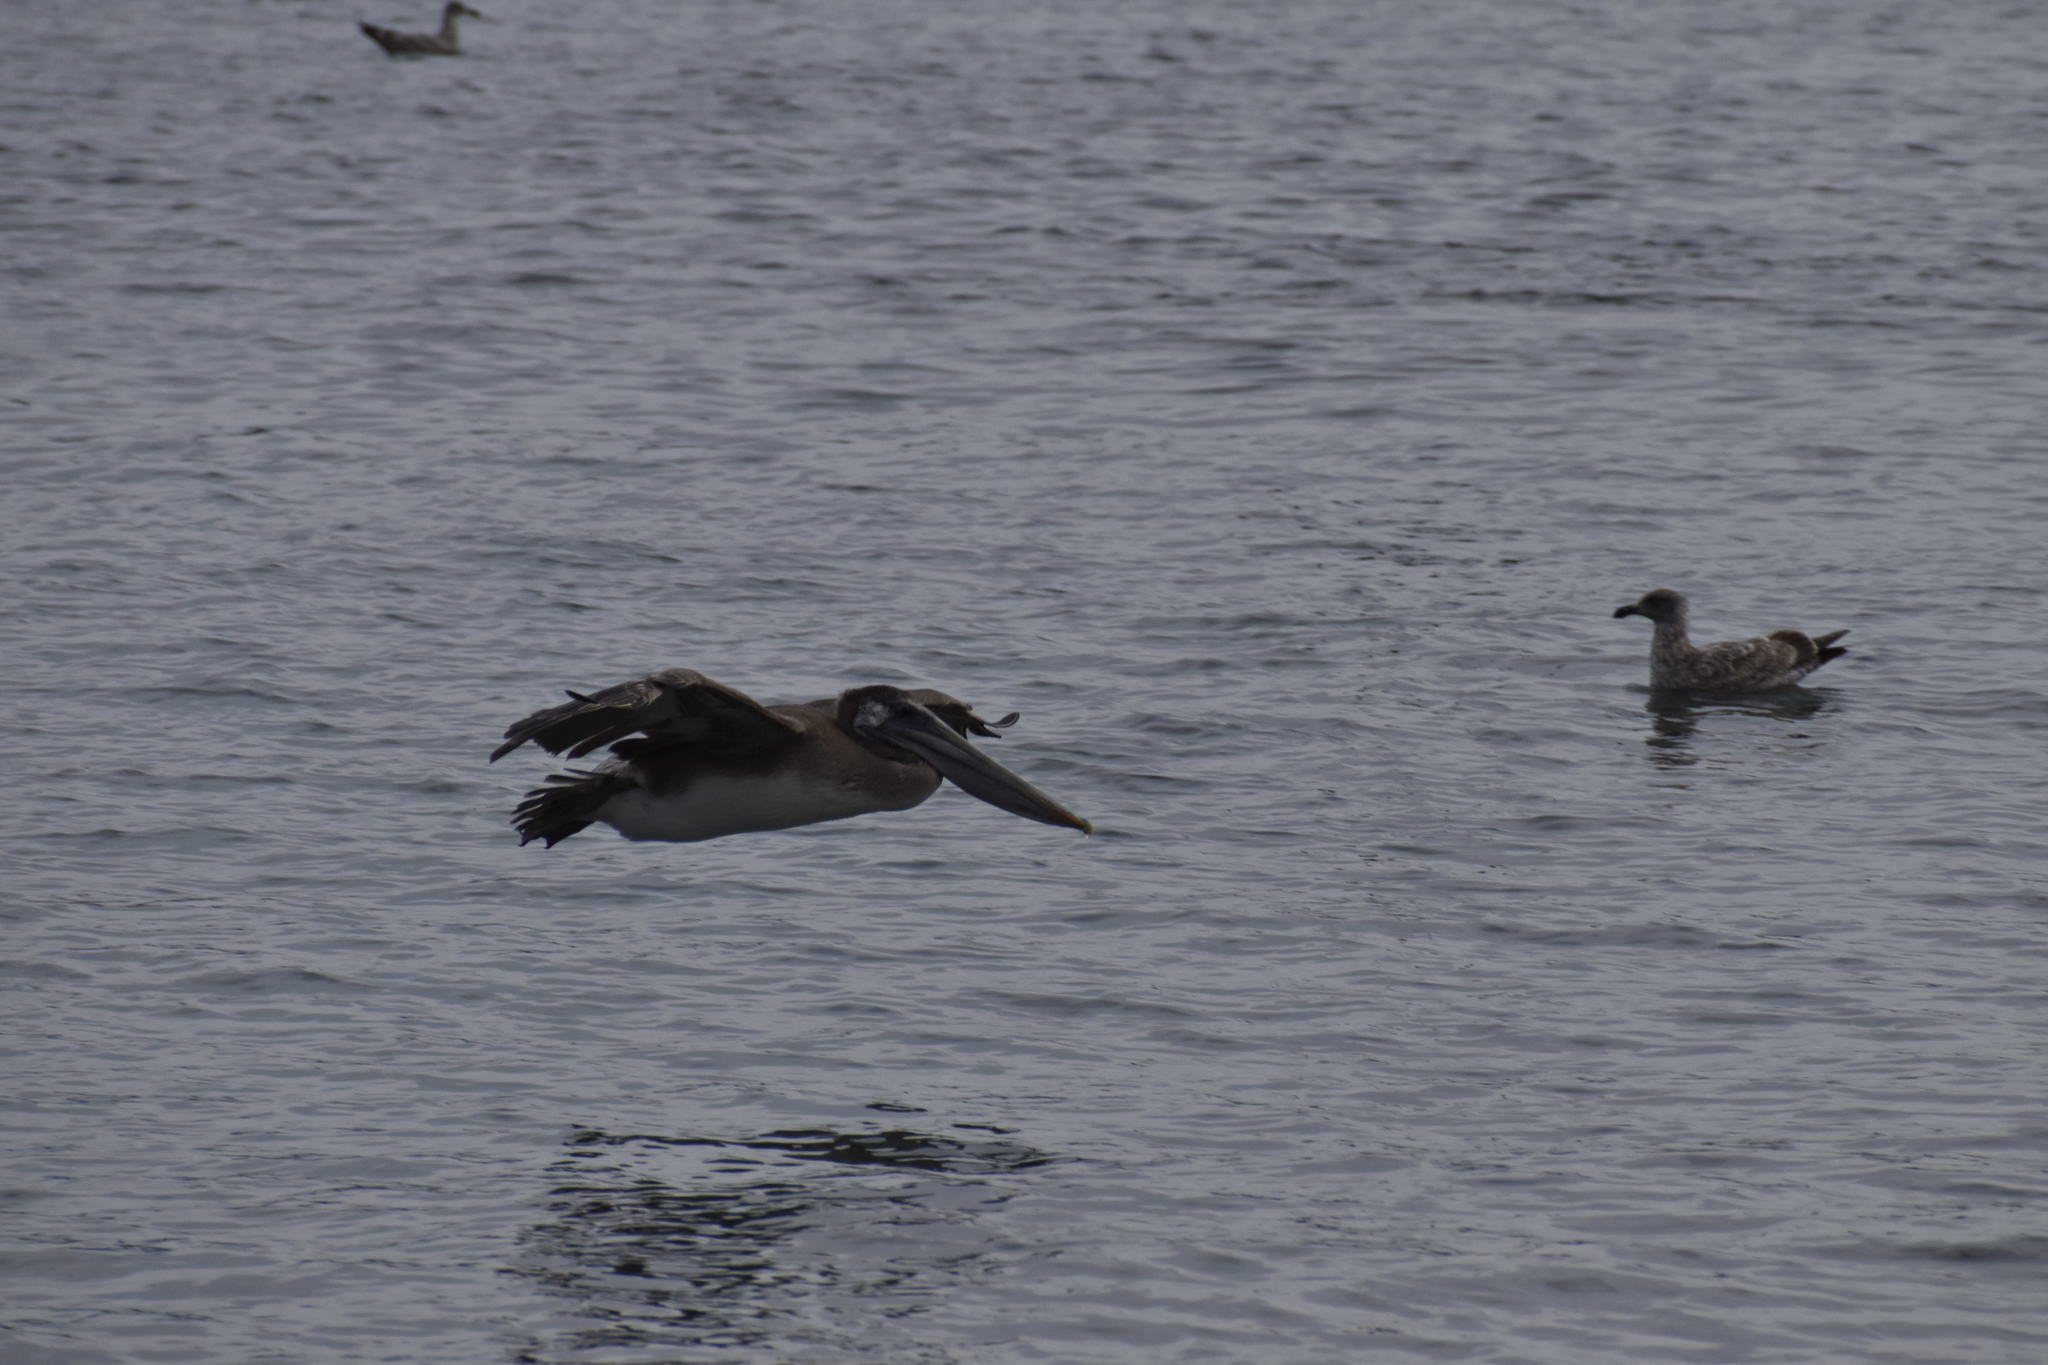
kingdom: Animalia
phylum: Chordata
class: Aves
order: Pelecaniformes
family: Pelecanidae
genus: Pelecanus
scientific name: Pelecanus occidentalis
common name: Brown pelican
